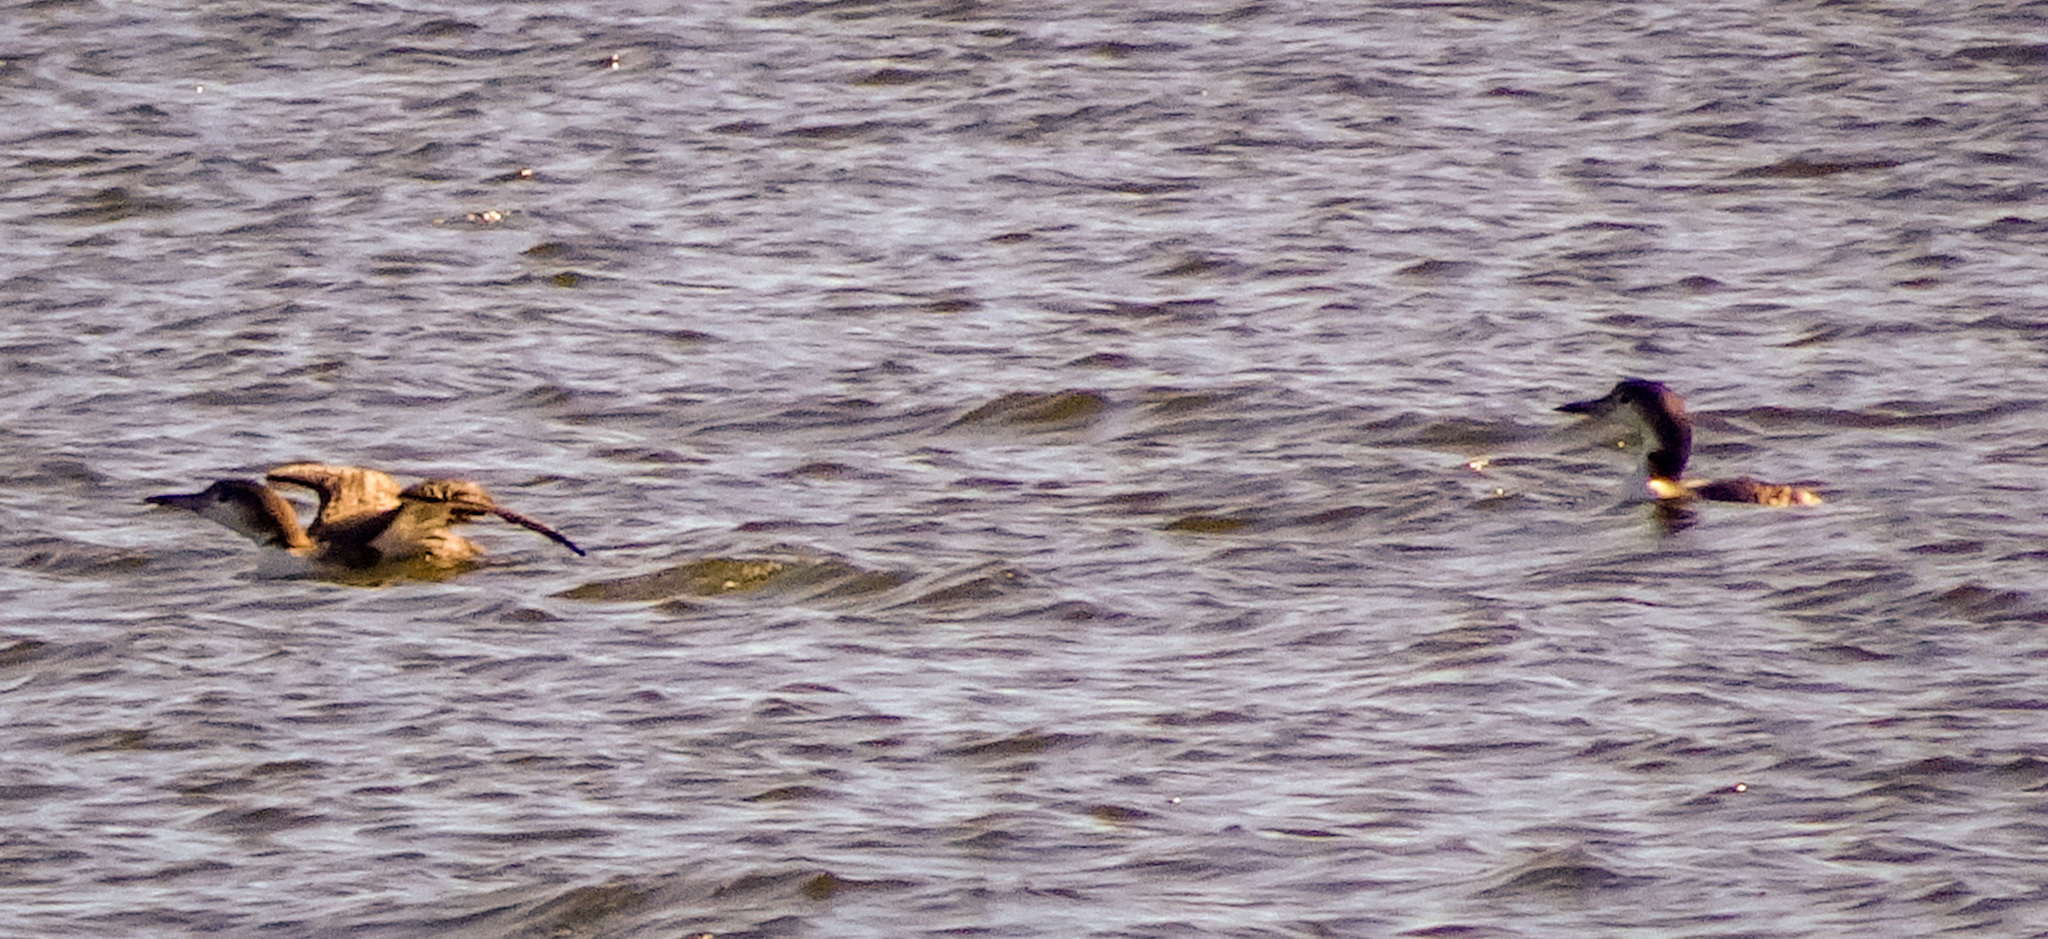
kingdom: Animalia
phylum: Chordata
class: Aves
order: Gaviiformes
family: Gaviidae
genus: Gavia
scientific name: Gavia immer
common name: Common loon
